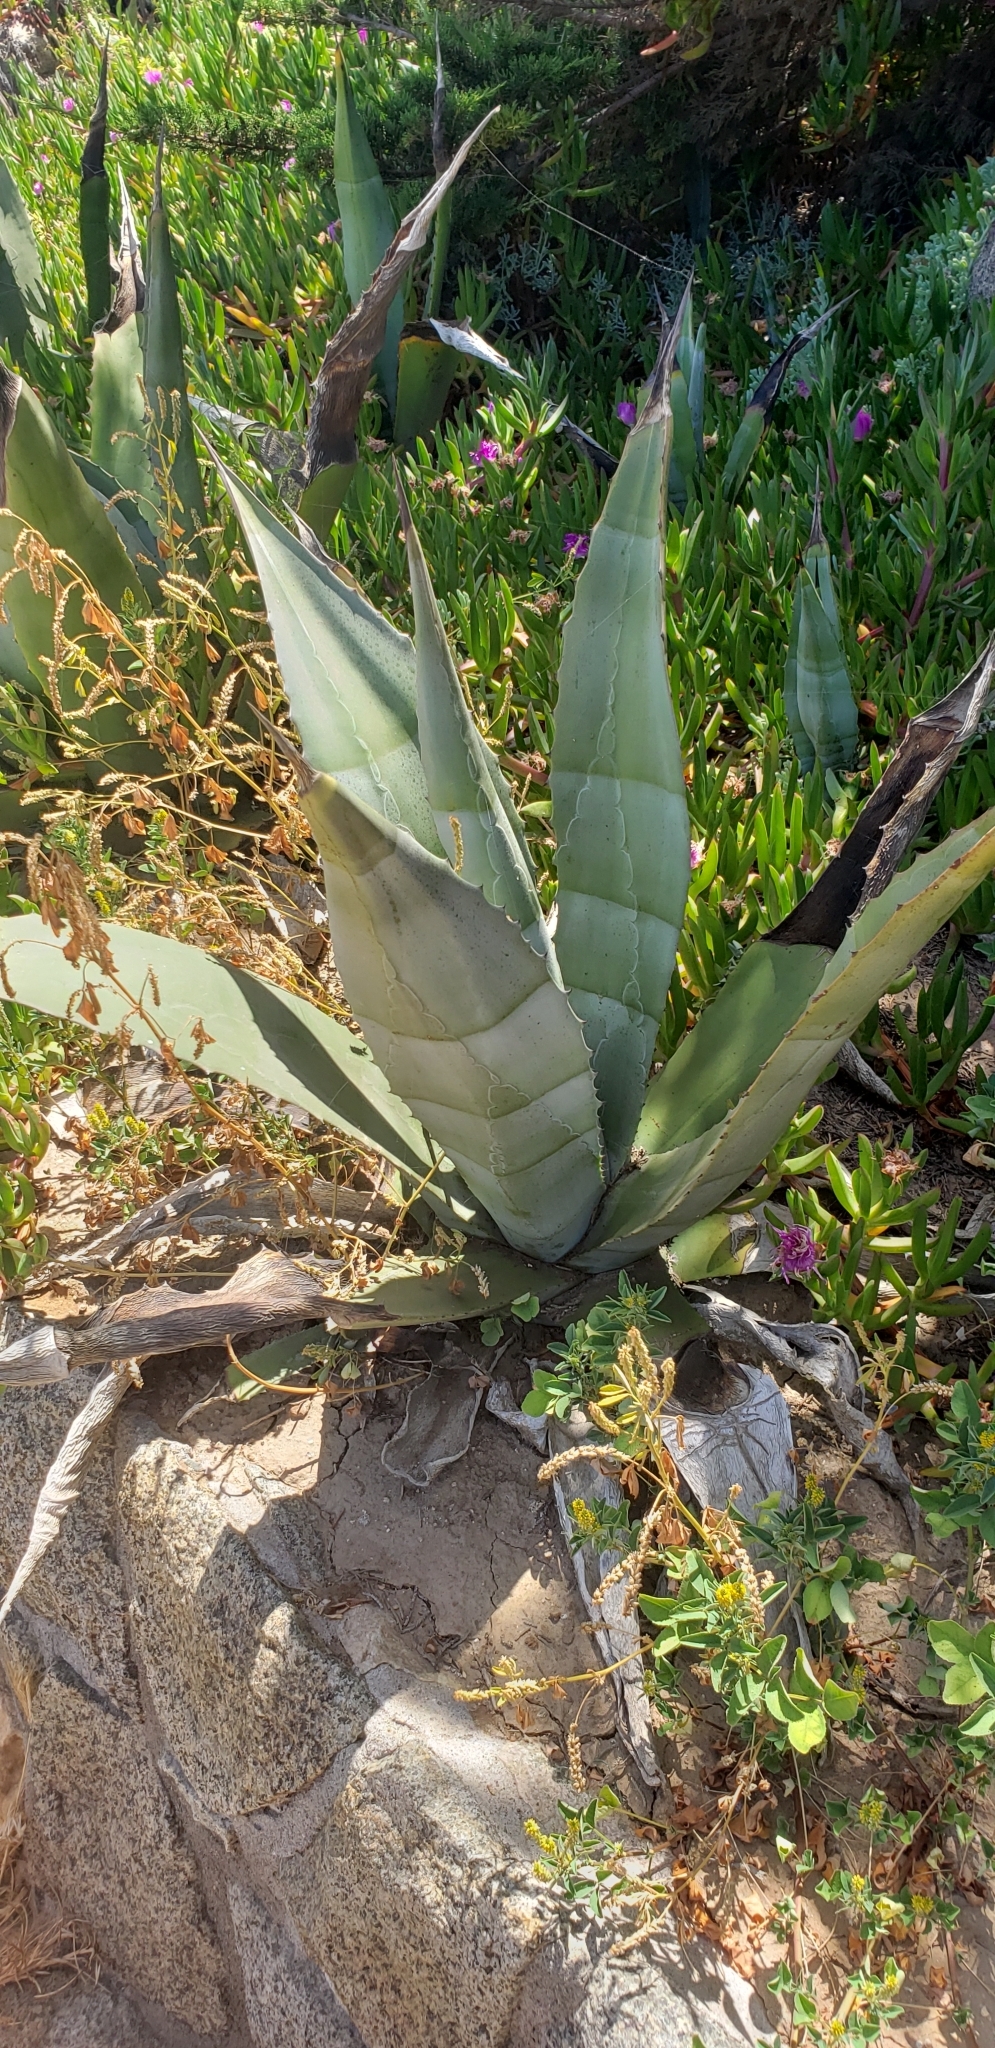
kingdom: Plantae
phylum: Tracheophyta
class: Liliopsida
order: Asparagales
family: Asparagaceae
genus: Agave
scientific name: Agave americana
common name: Centuryplant
